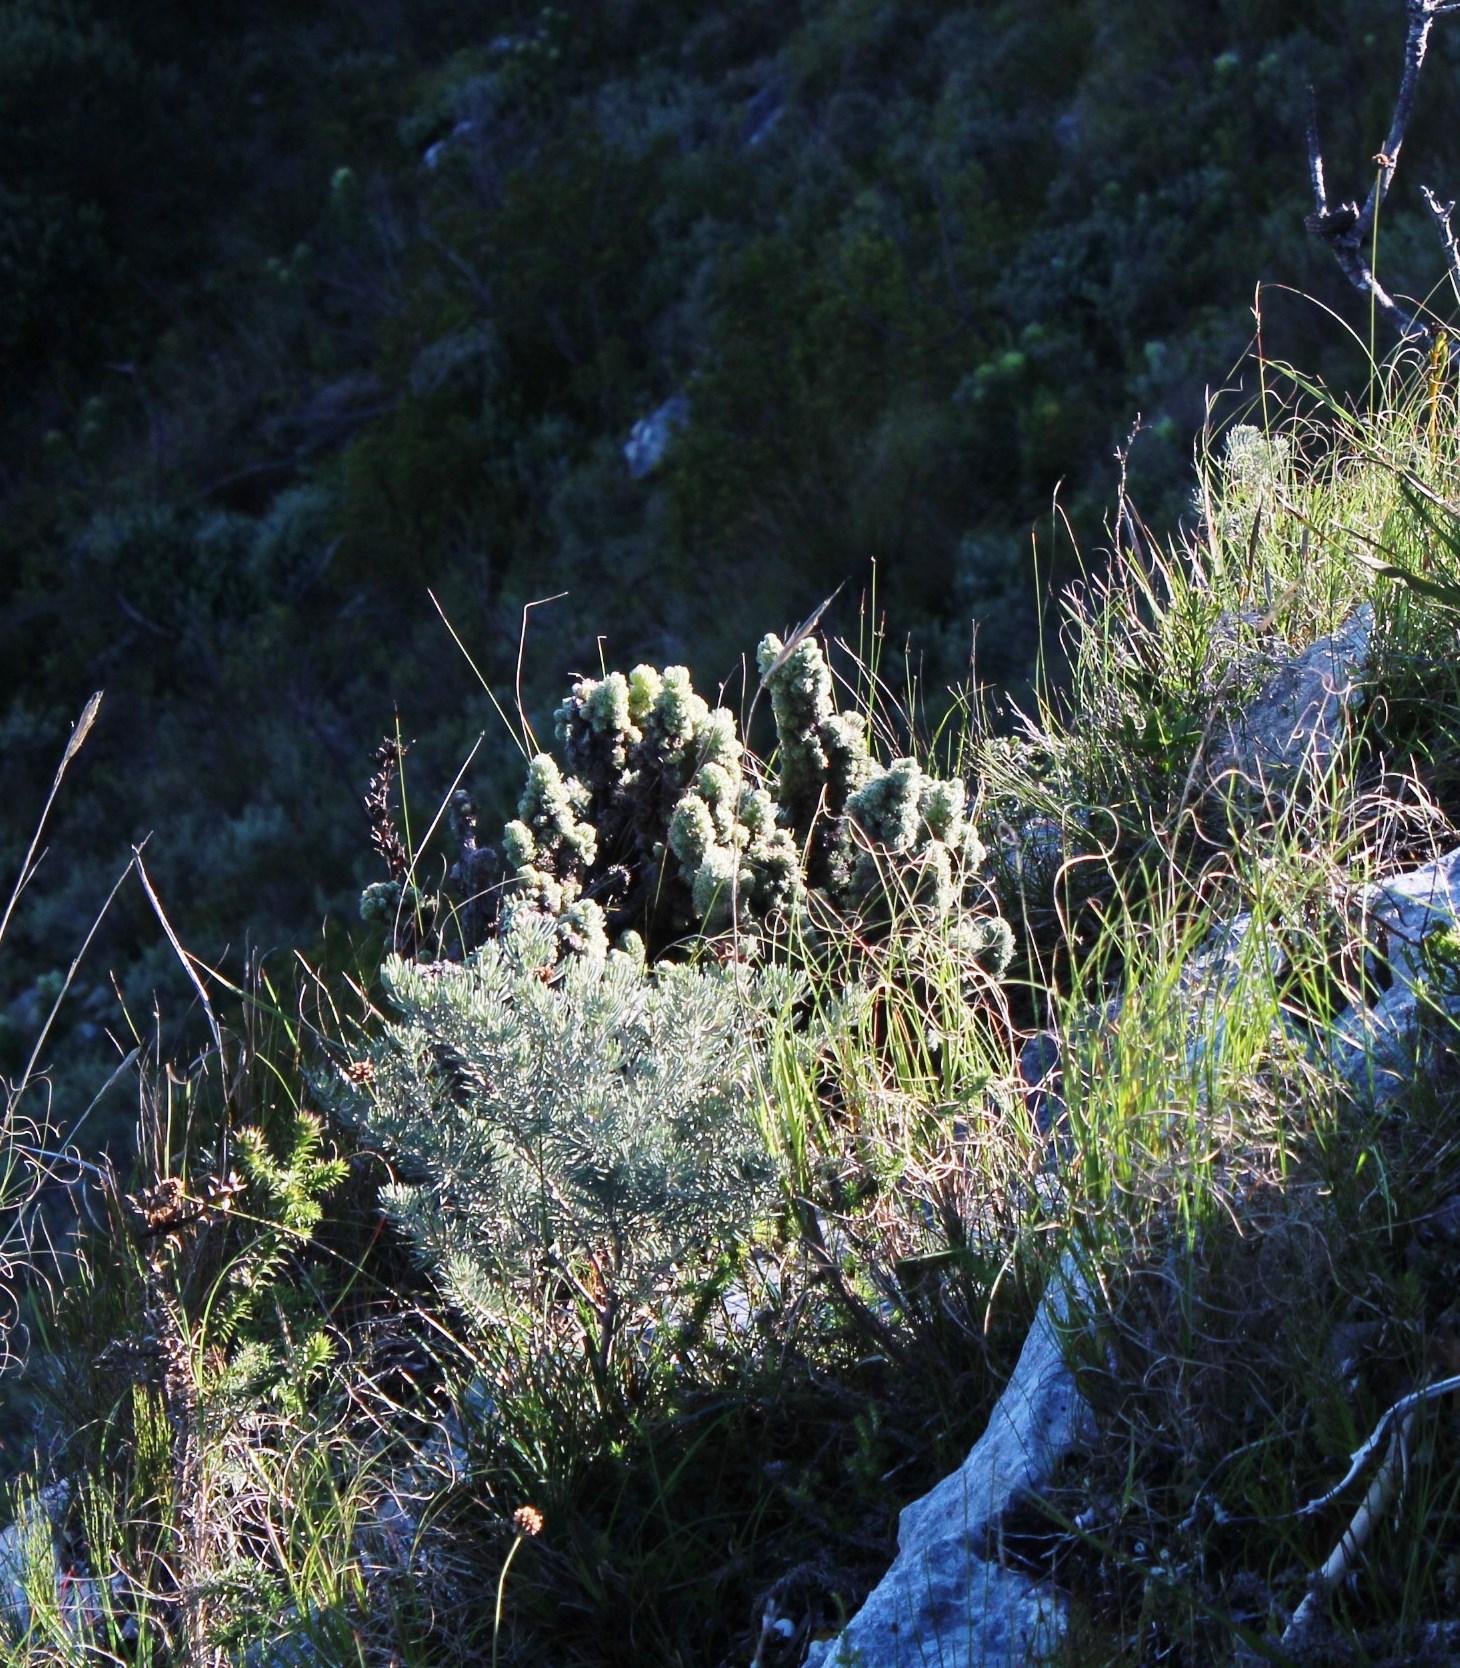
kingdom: Plantae
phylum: Tracheophyta
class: Magnoliopsida
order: Ericales
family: Ericaceae
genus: Erica
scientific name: Erica occulta
